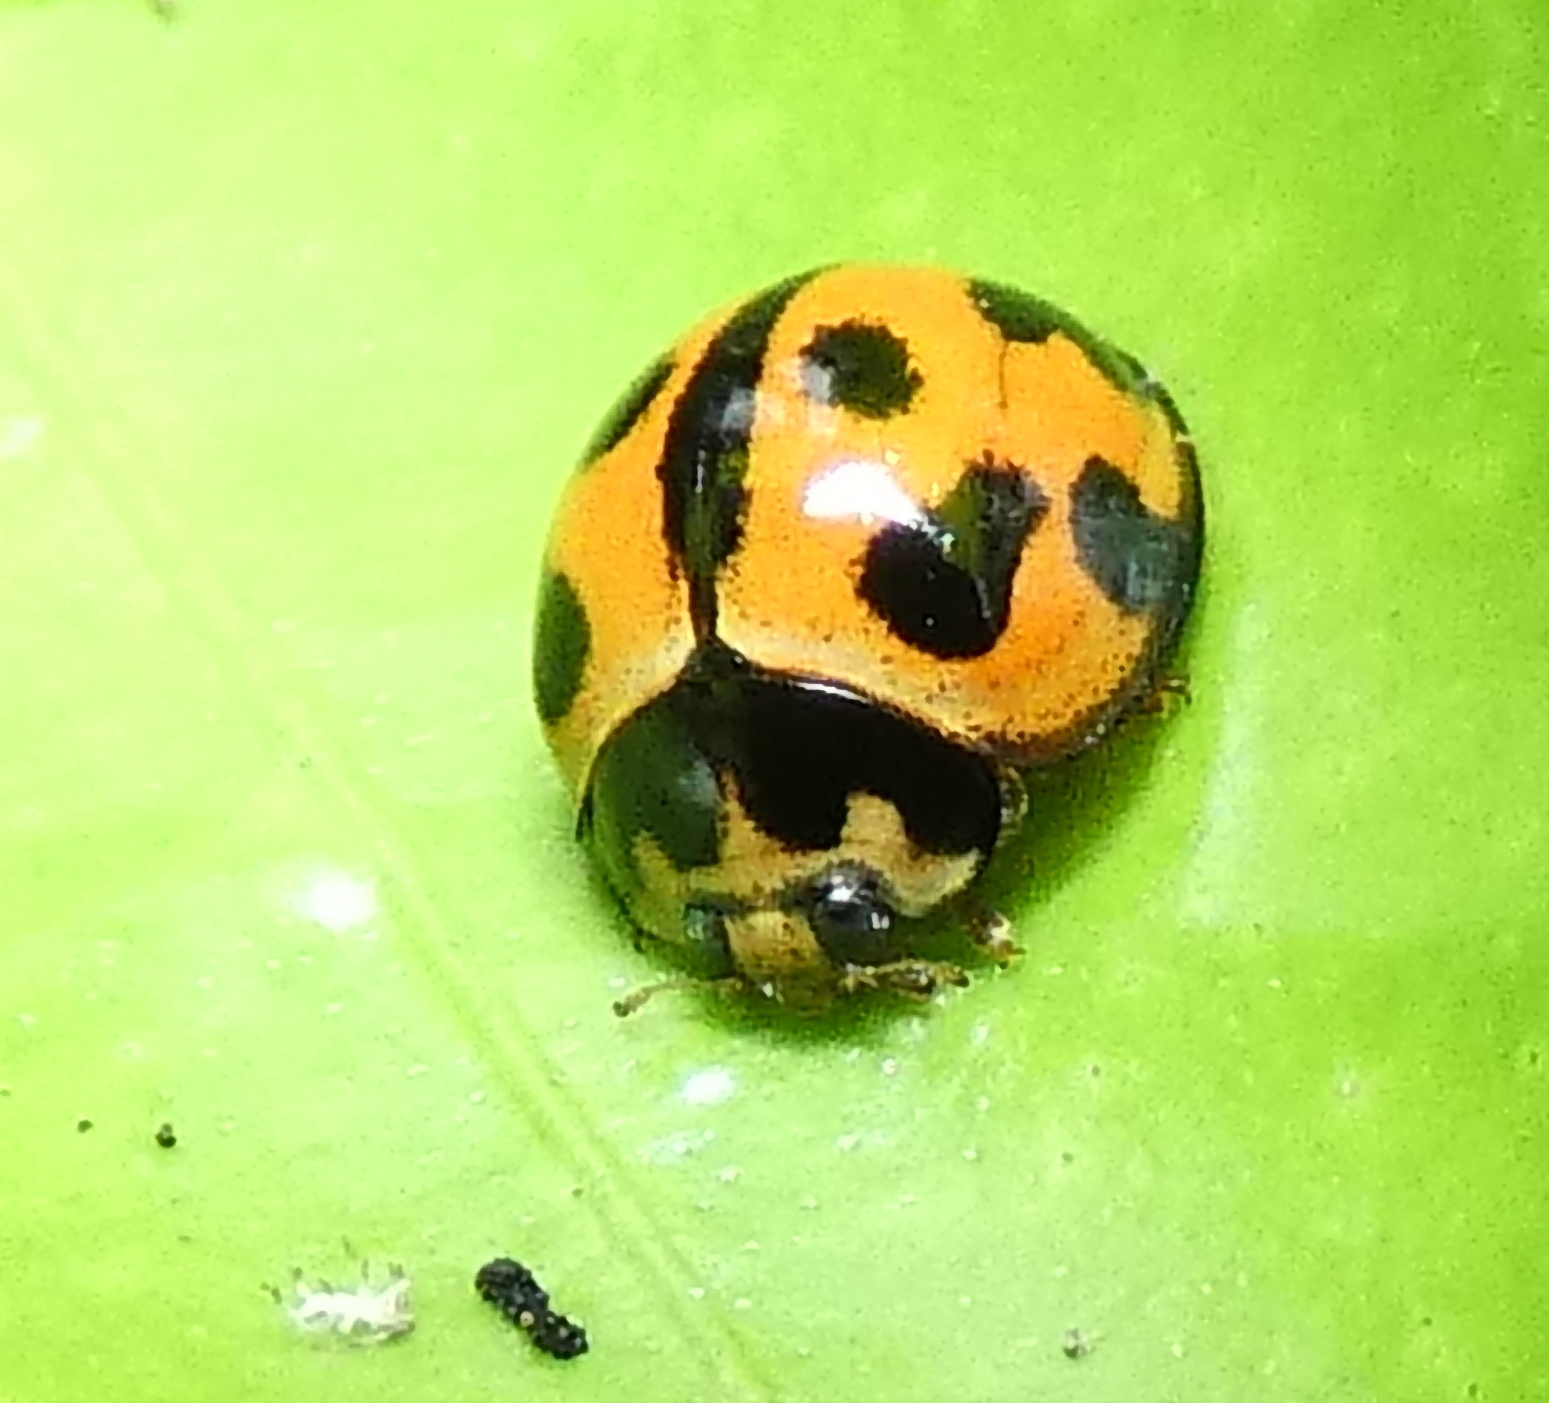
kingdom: Animalia
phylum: Arthropoda
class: Insecta
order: Coleoptera
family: Coccinellidae
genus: Coelophora
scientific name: Coelophora inaequalis
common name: Common australian lady beetle
